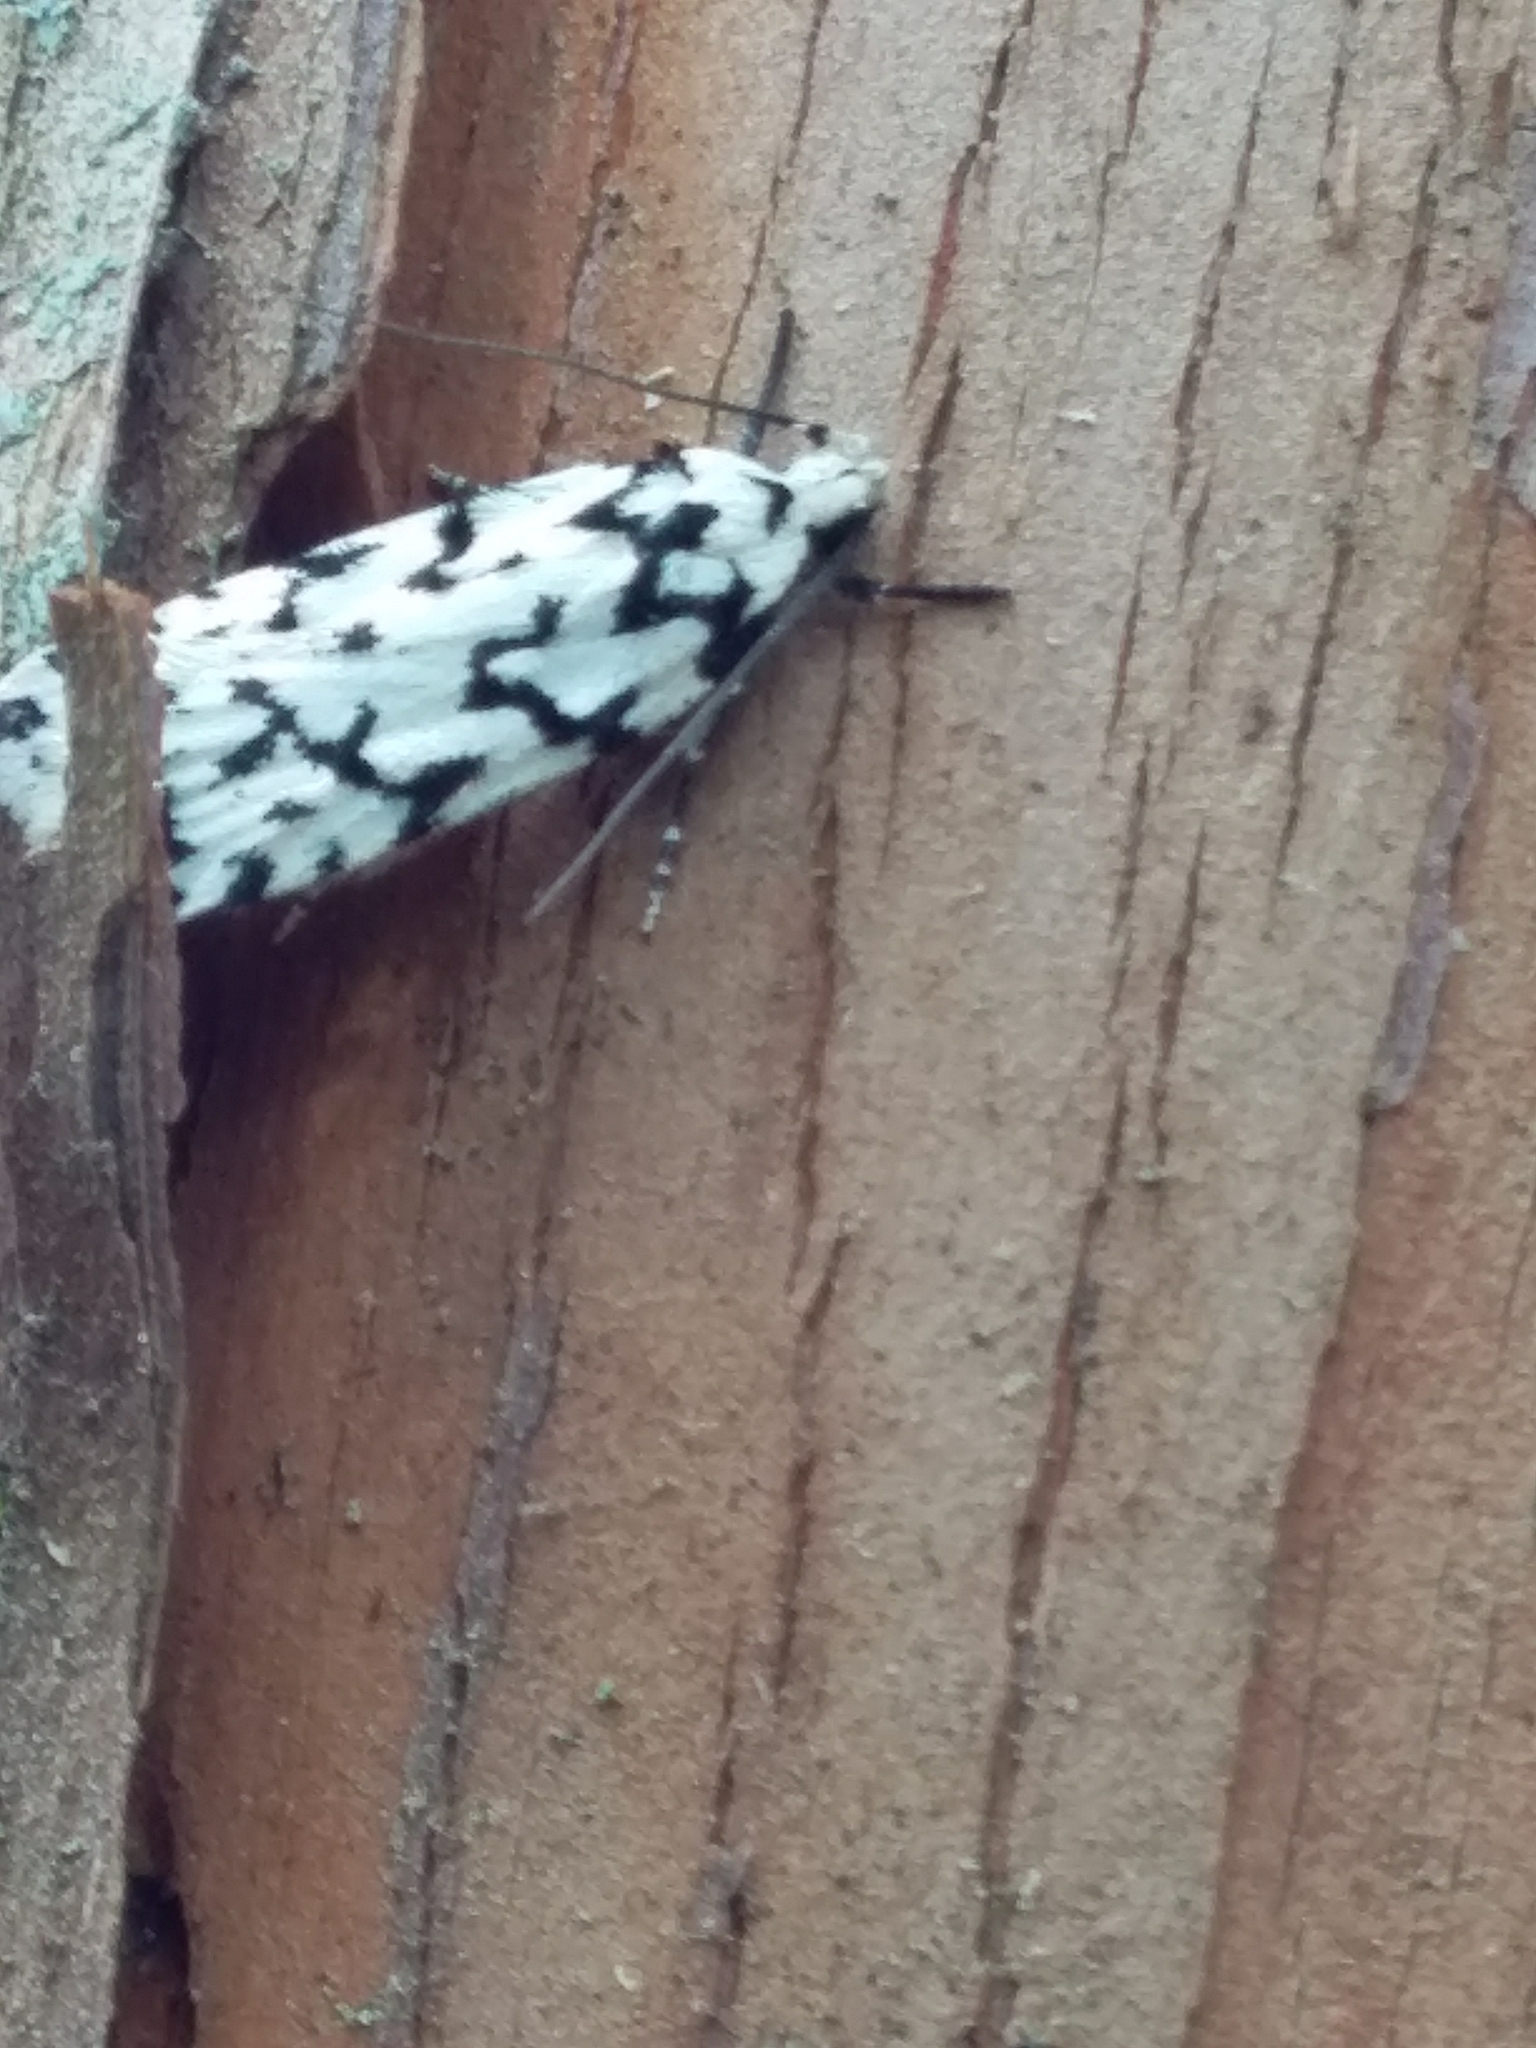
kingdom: Animalia
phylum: Arthropoda
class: Insecta
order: Lepidoptera
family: Oecophoridae
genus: Izatha
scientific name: Izatha katadiktya
